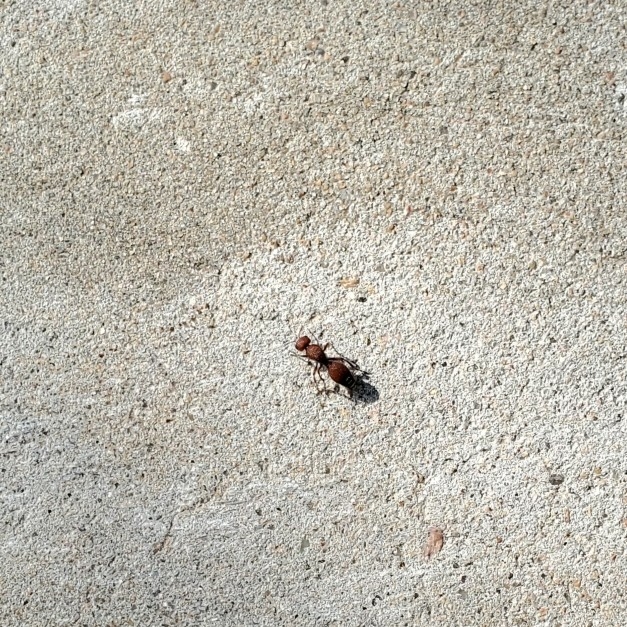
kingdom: Animalia
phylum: Arthropoda
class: Insecta
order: Hymenoptera
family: Mutillidae
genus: Dasymutilla
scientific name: Dasymutilla
